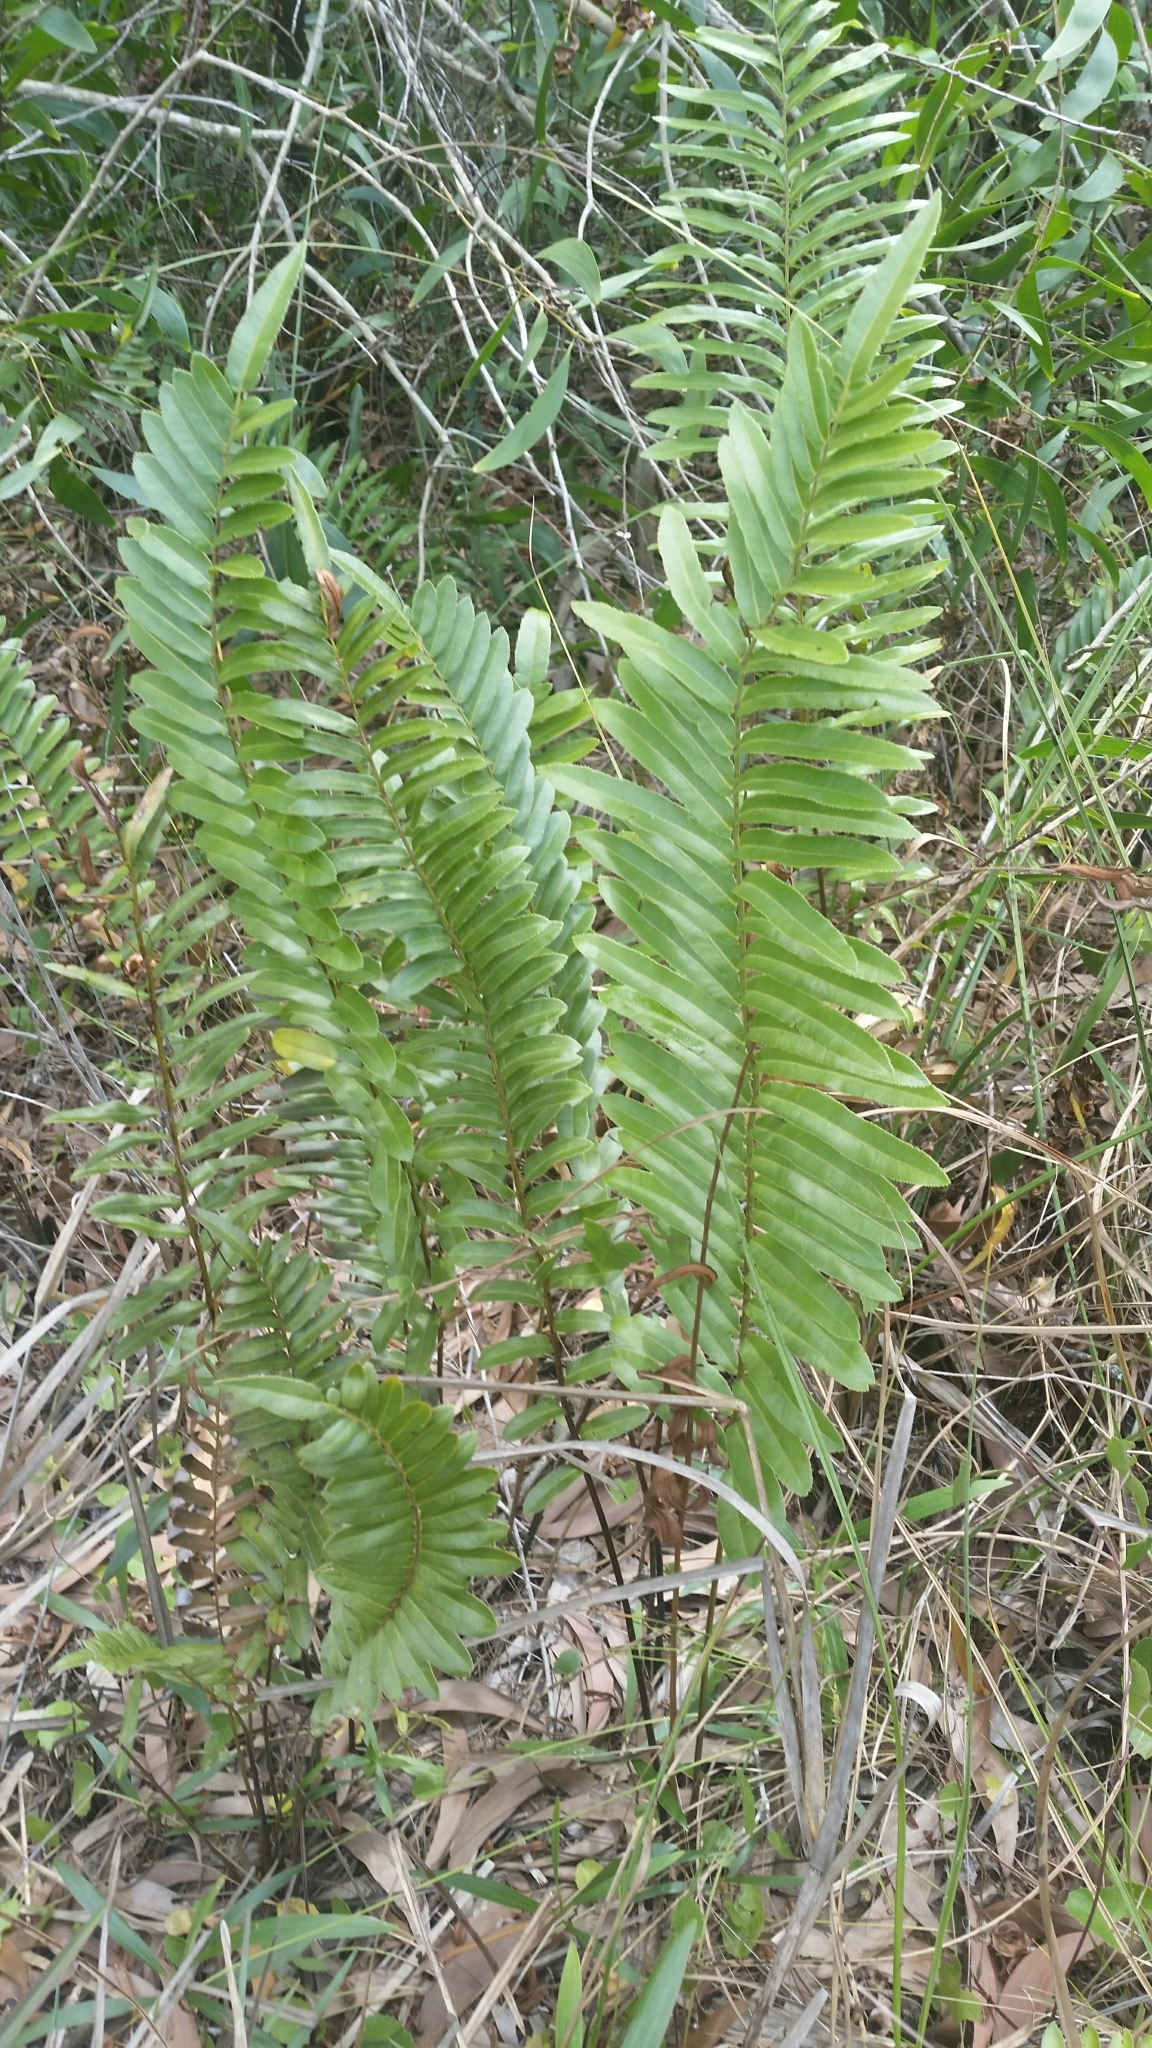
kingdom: Plantae
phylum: Tracheophyta
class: Polypodiopsida
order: Polypodiales
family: Blechnaceae
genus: Telmatoblechnum
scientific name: Telmatoblechnum serrulatum
